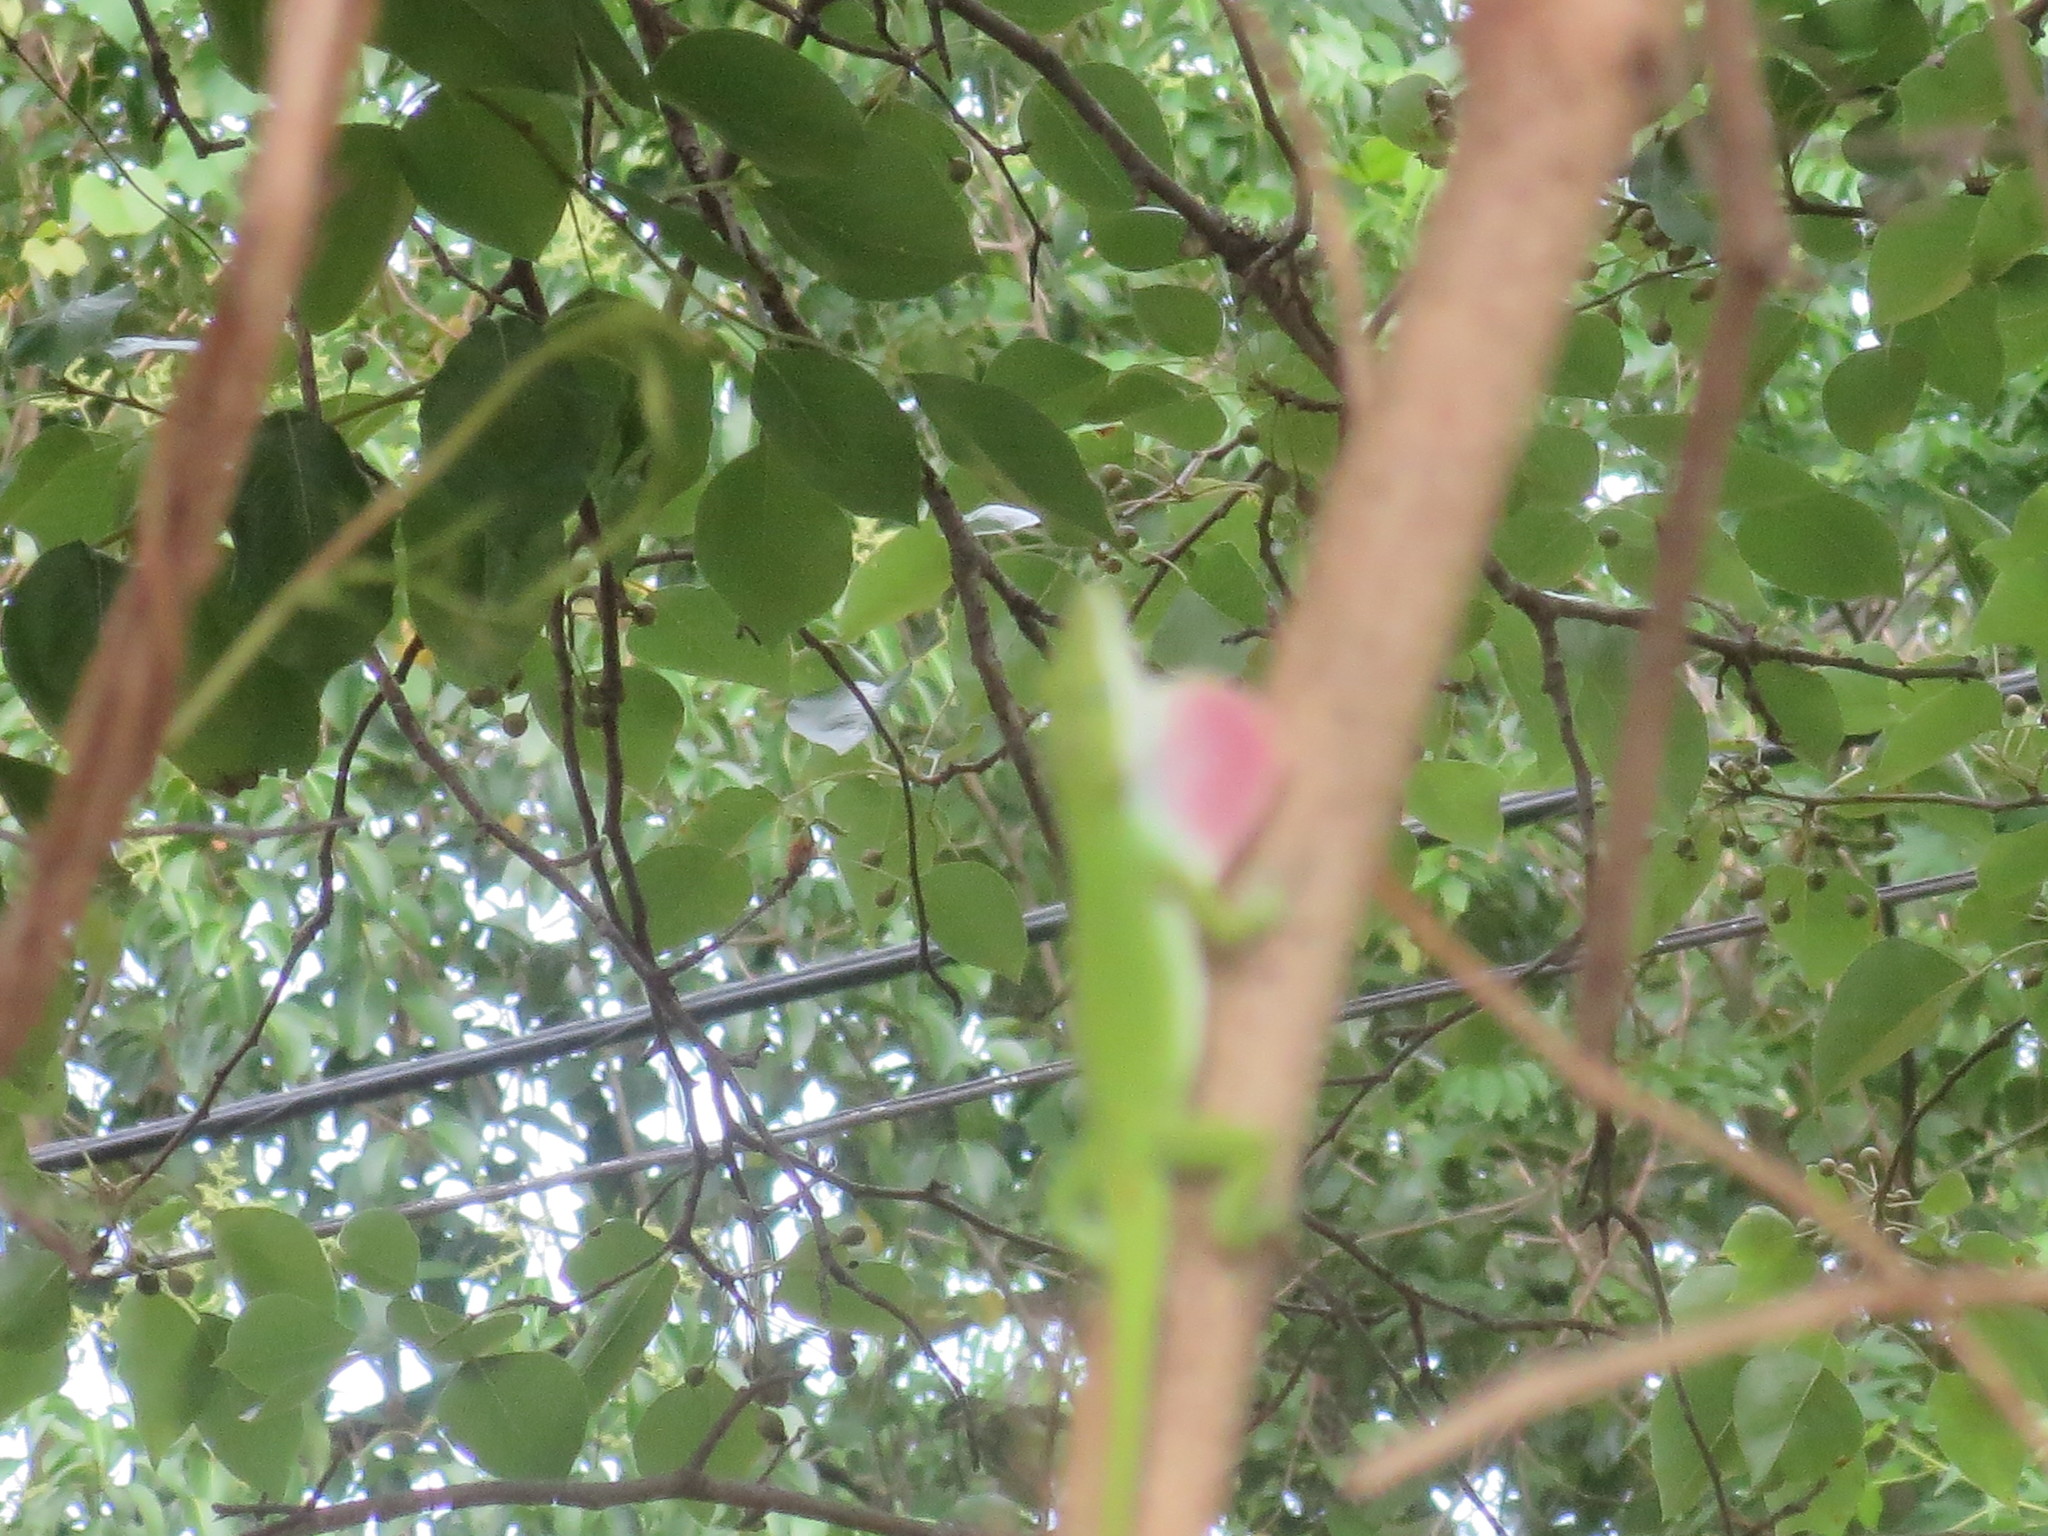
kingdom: Animalia
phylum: Chordata
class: Squamata
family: Dactyloidae
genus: Anolis
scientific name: Anolis carolinensis
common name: Green anole
